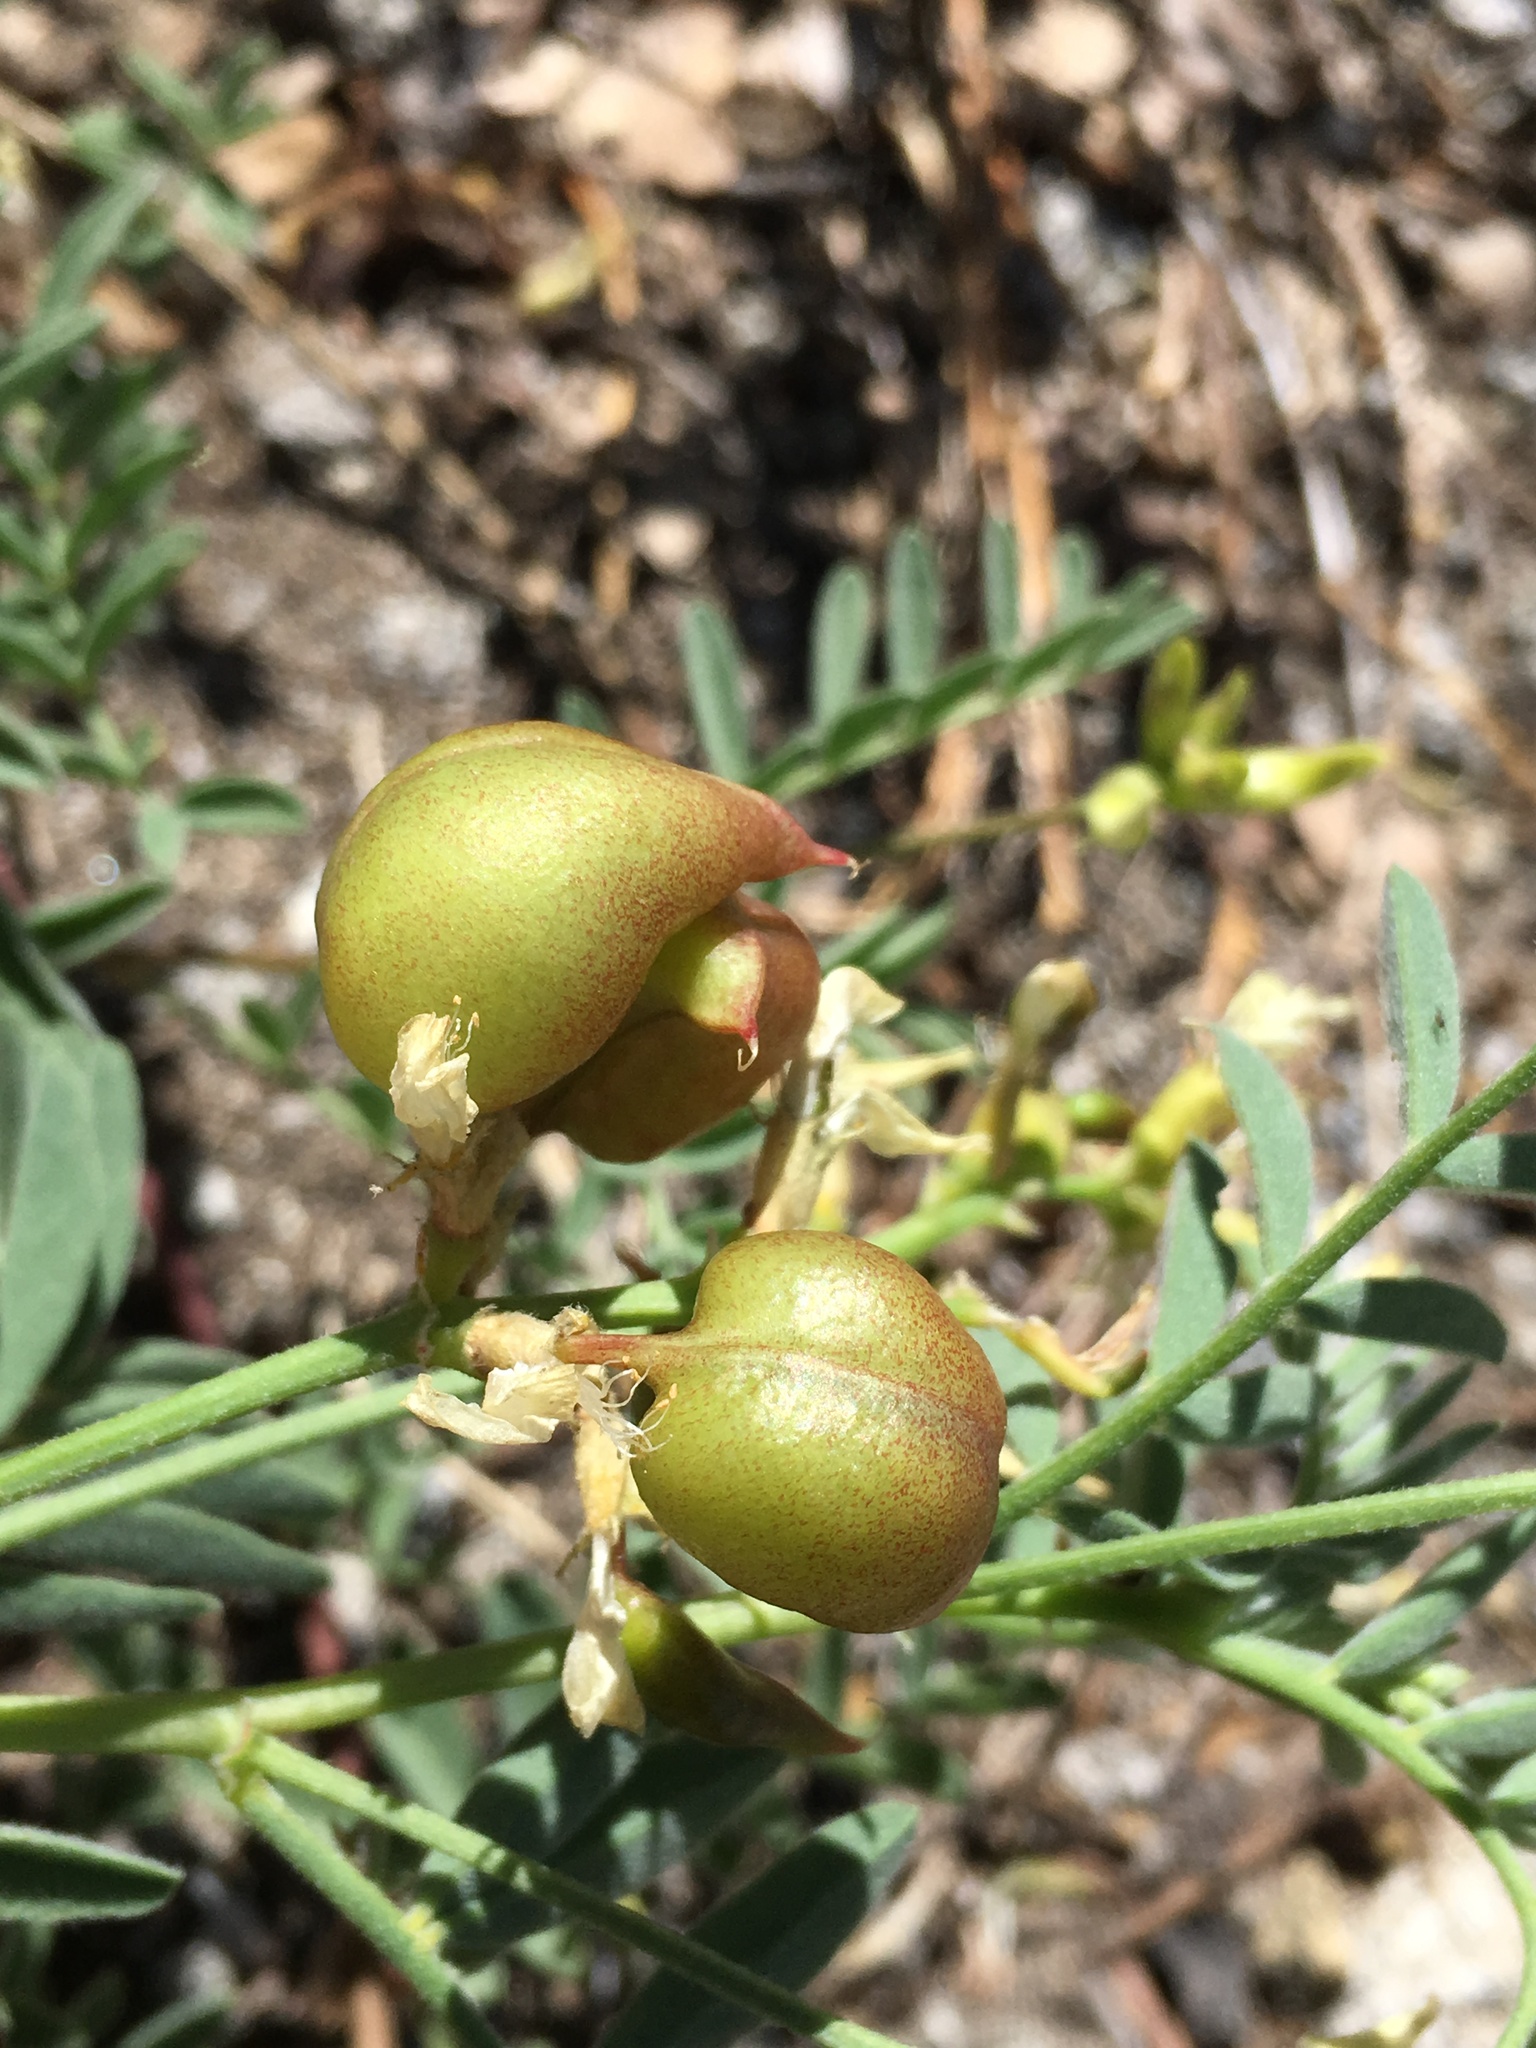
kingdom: Plantae
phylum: Tracheophyta
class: Magnoliopsida
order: Fabales
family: Fabaceae
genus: Astragalus
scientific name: Astragalus bolanderi
